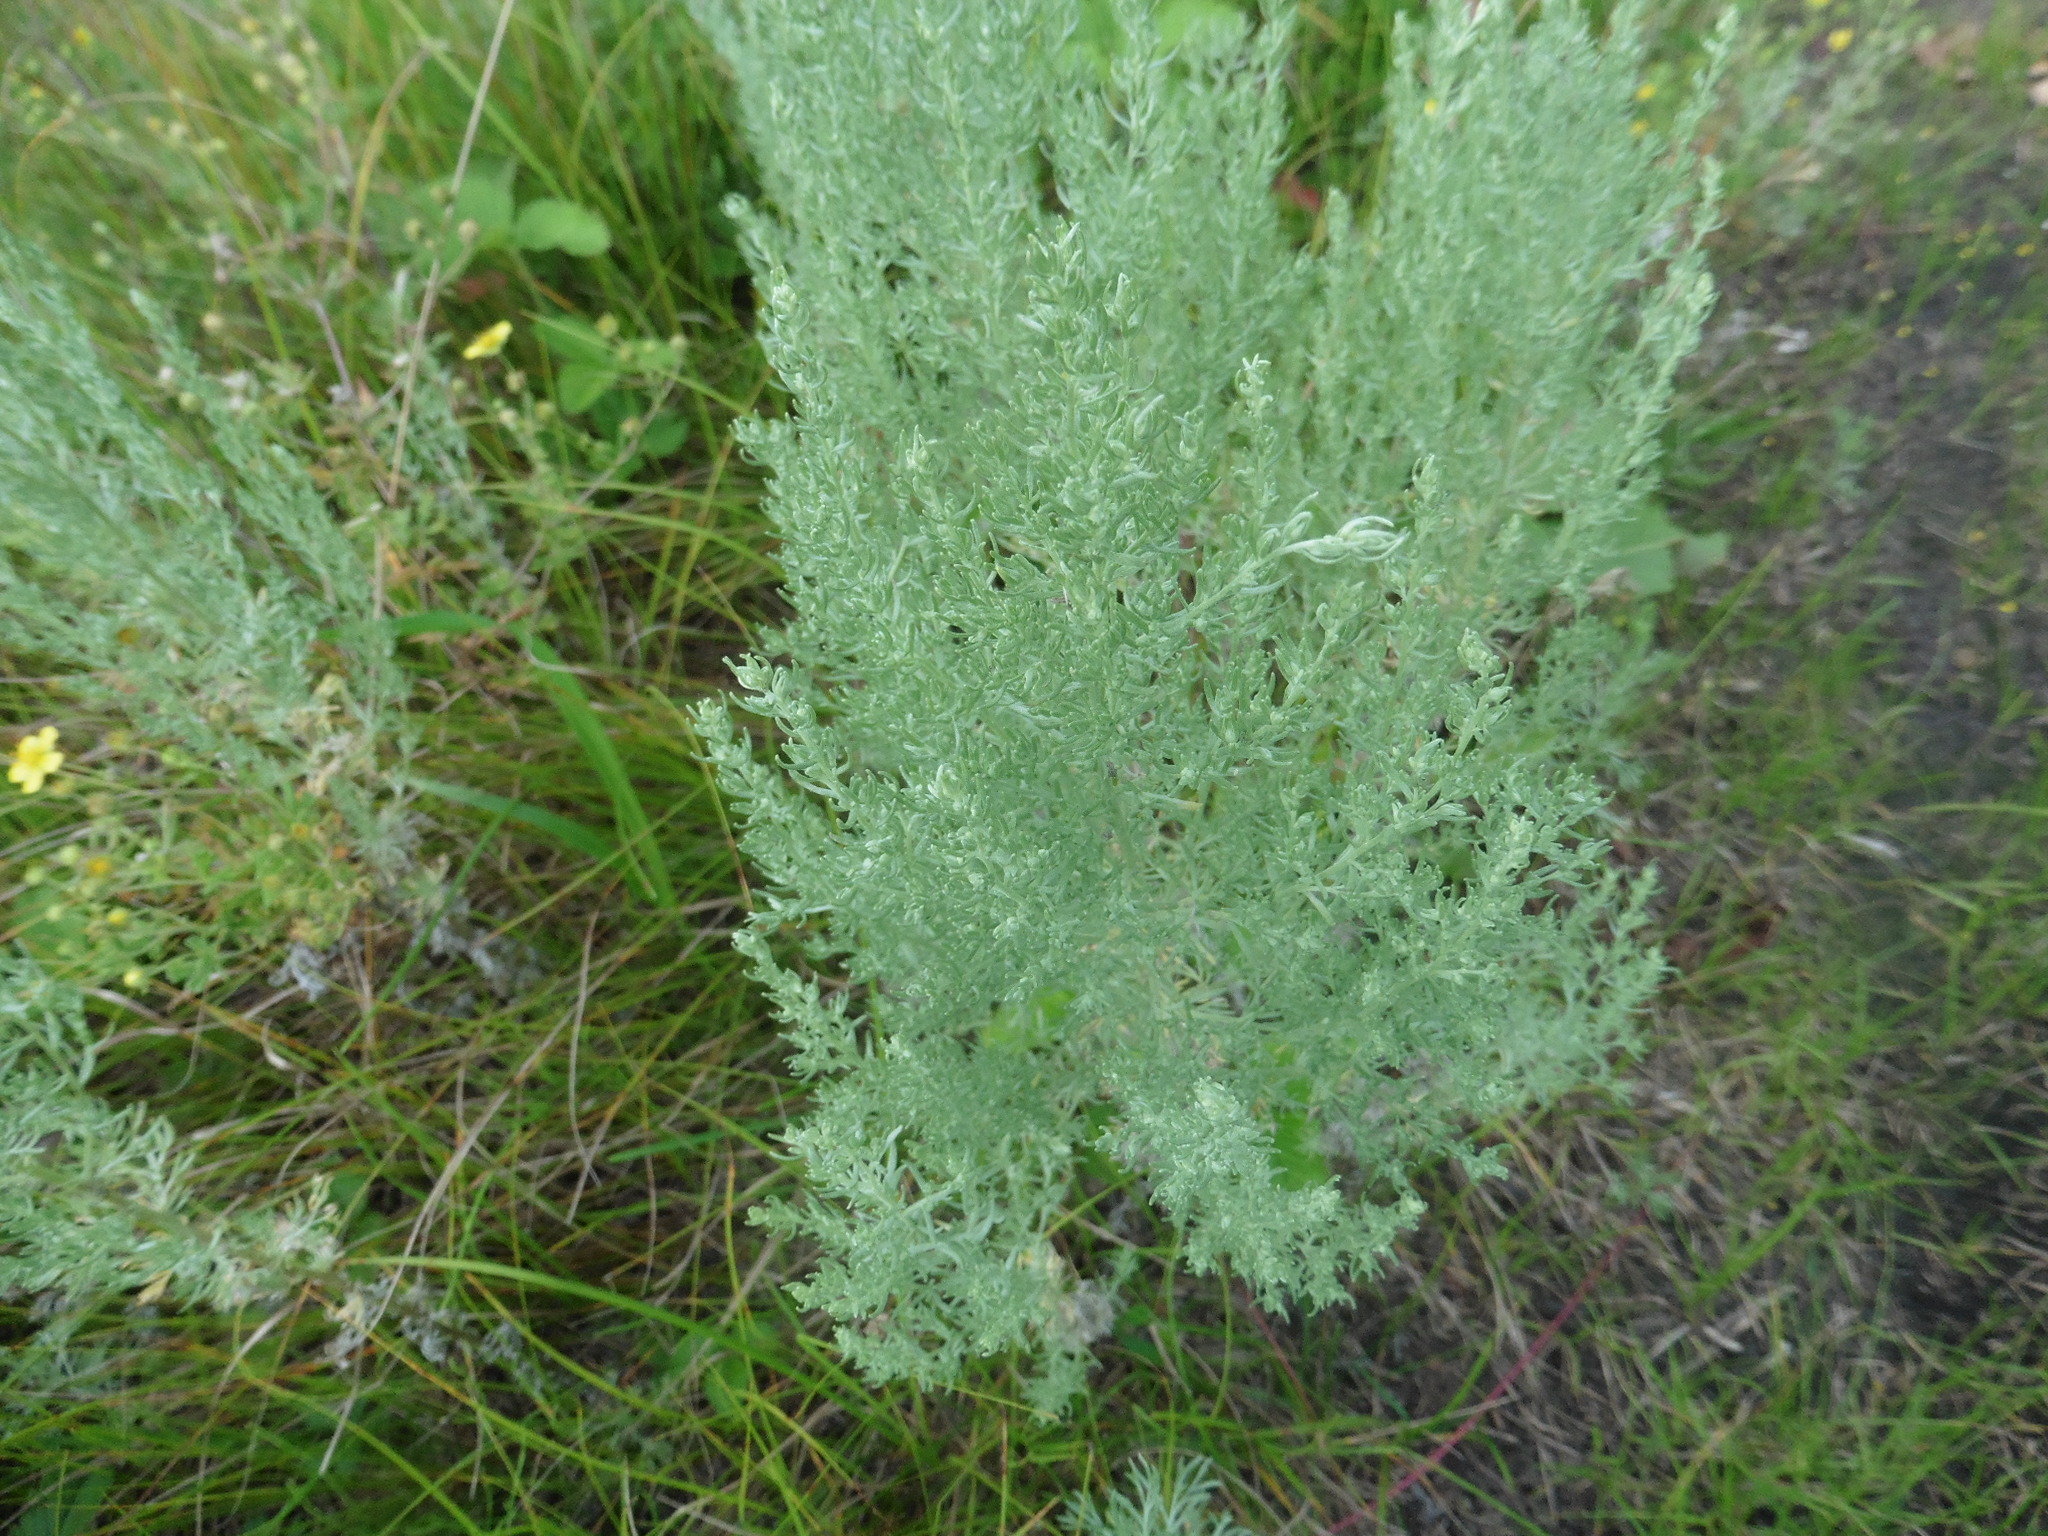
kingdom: Plantae
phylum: Tracheophyta
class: Magnoliopsida
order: Asterales
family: Asteraceae
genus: Artemisia
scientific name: Artemisia austriaca
